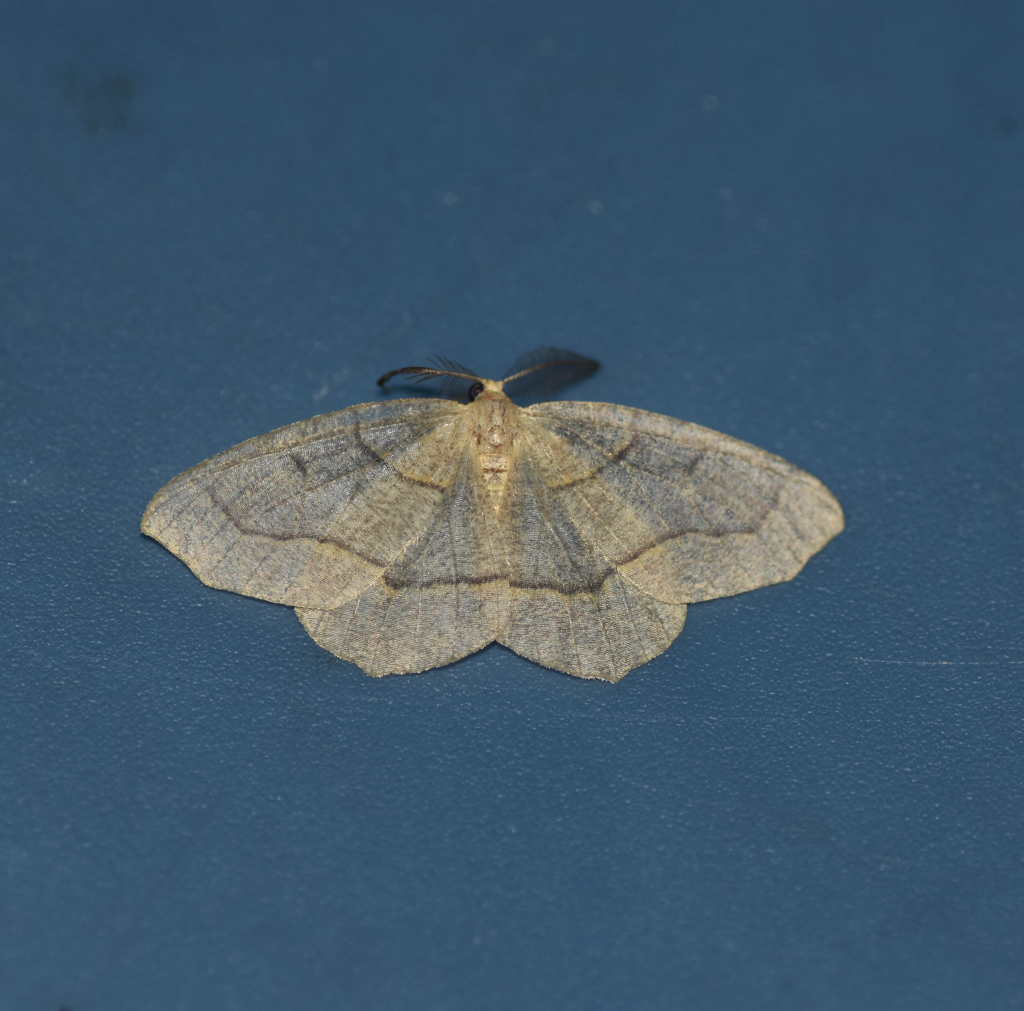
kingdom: Animalia
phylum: Arthropoda
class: Insecta
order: Lepidoptera
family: Geometridae
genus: Lambdina
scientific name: Lambdina fiscellaria
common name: Hemlock looper
